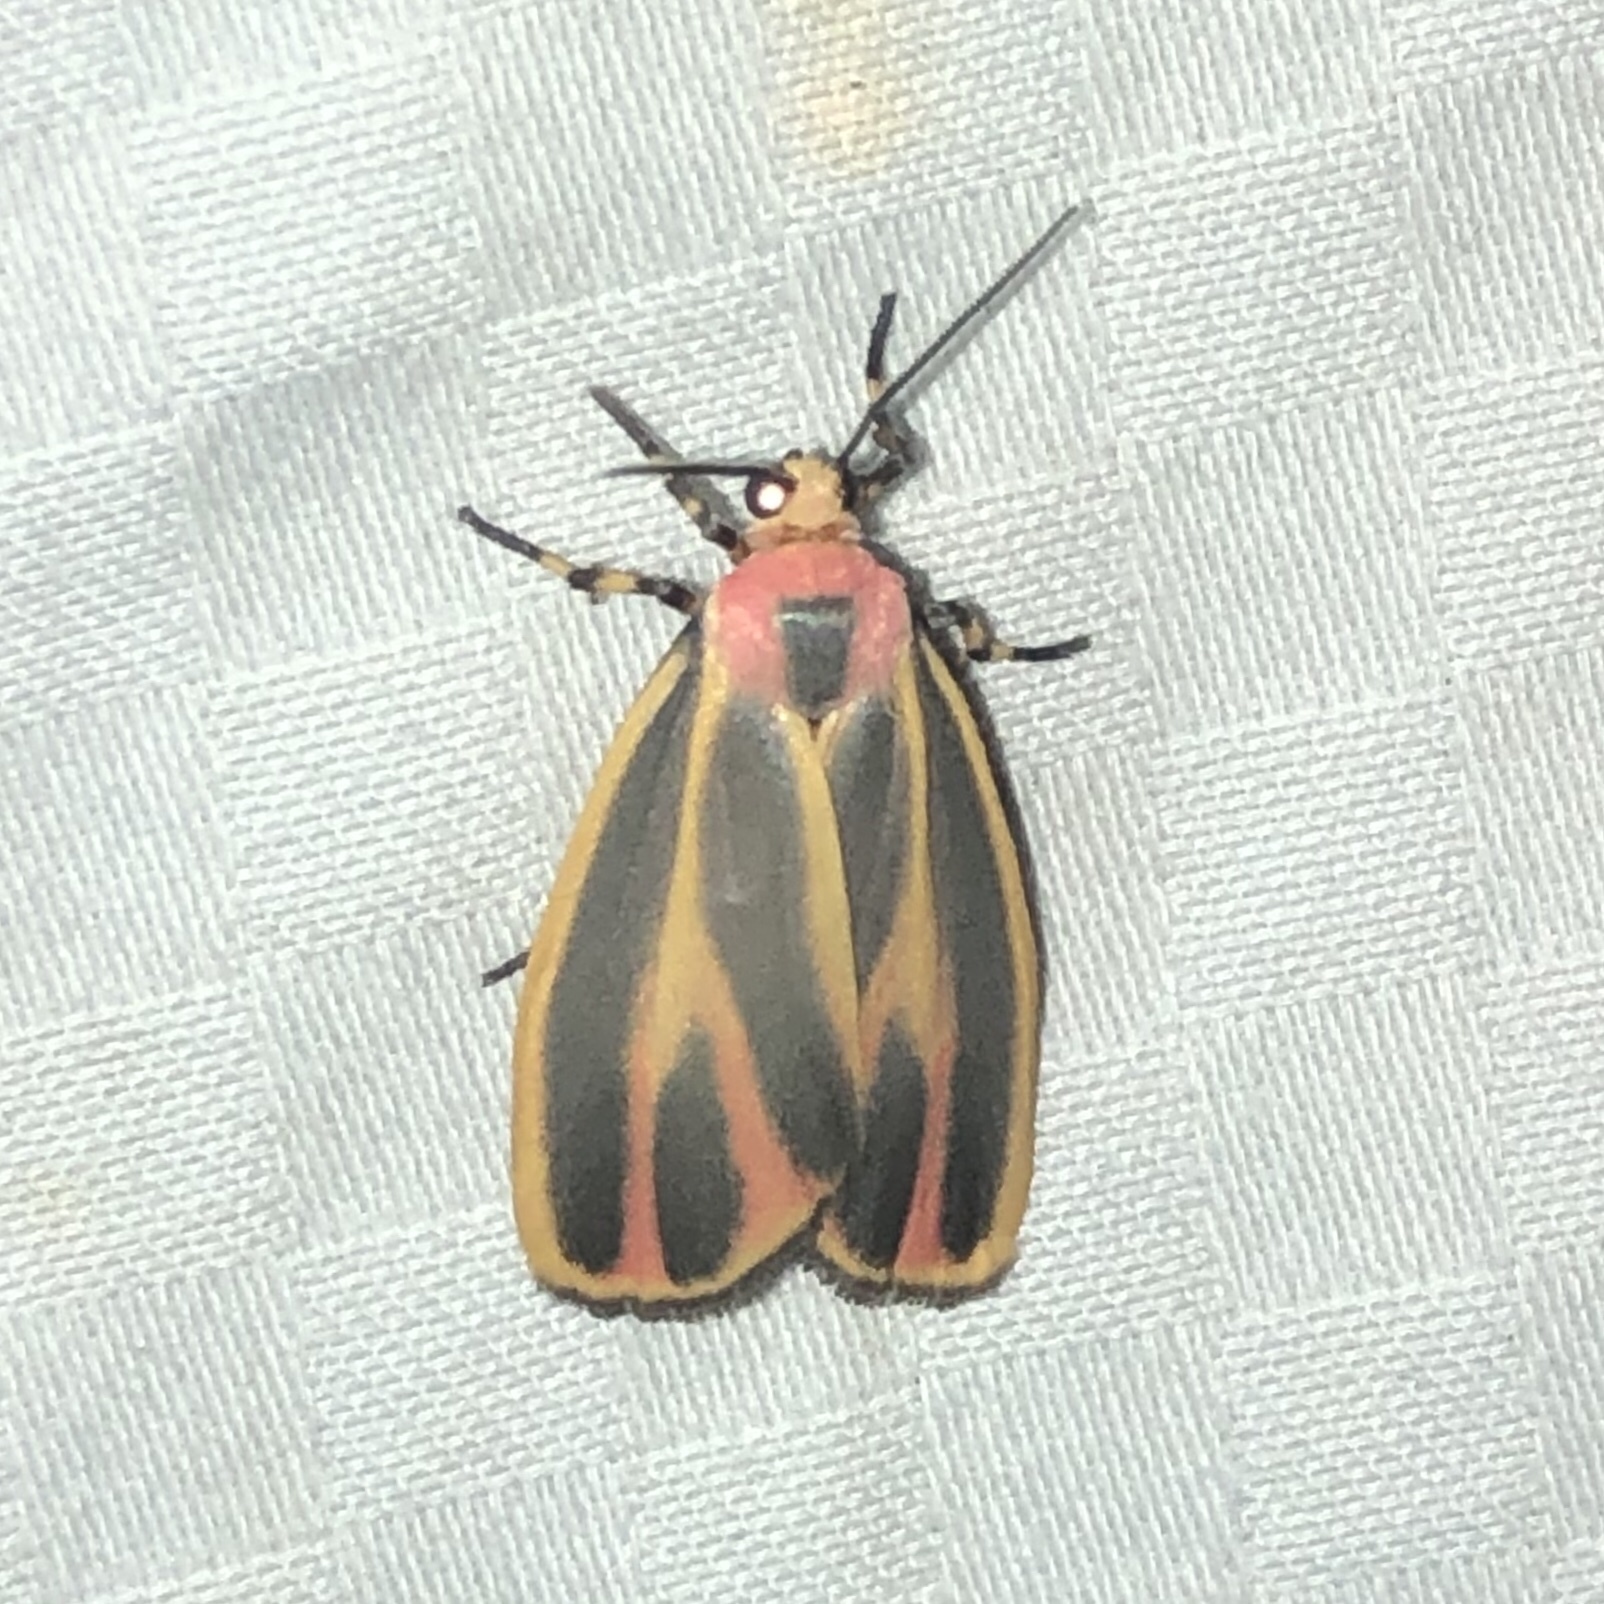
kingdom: Animalia
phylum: Arthropoda
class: Insecta
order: Lepidoptera
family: Erebidae
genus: Hypoprepia
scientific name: Hypoprepia fucosa
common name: Painted lichen moth
